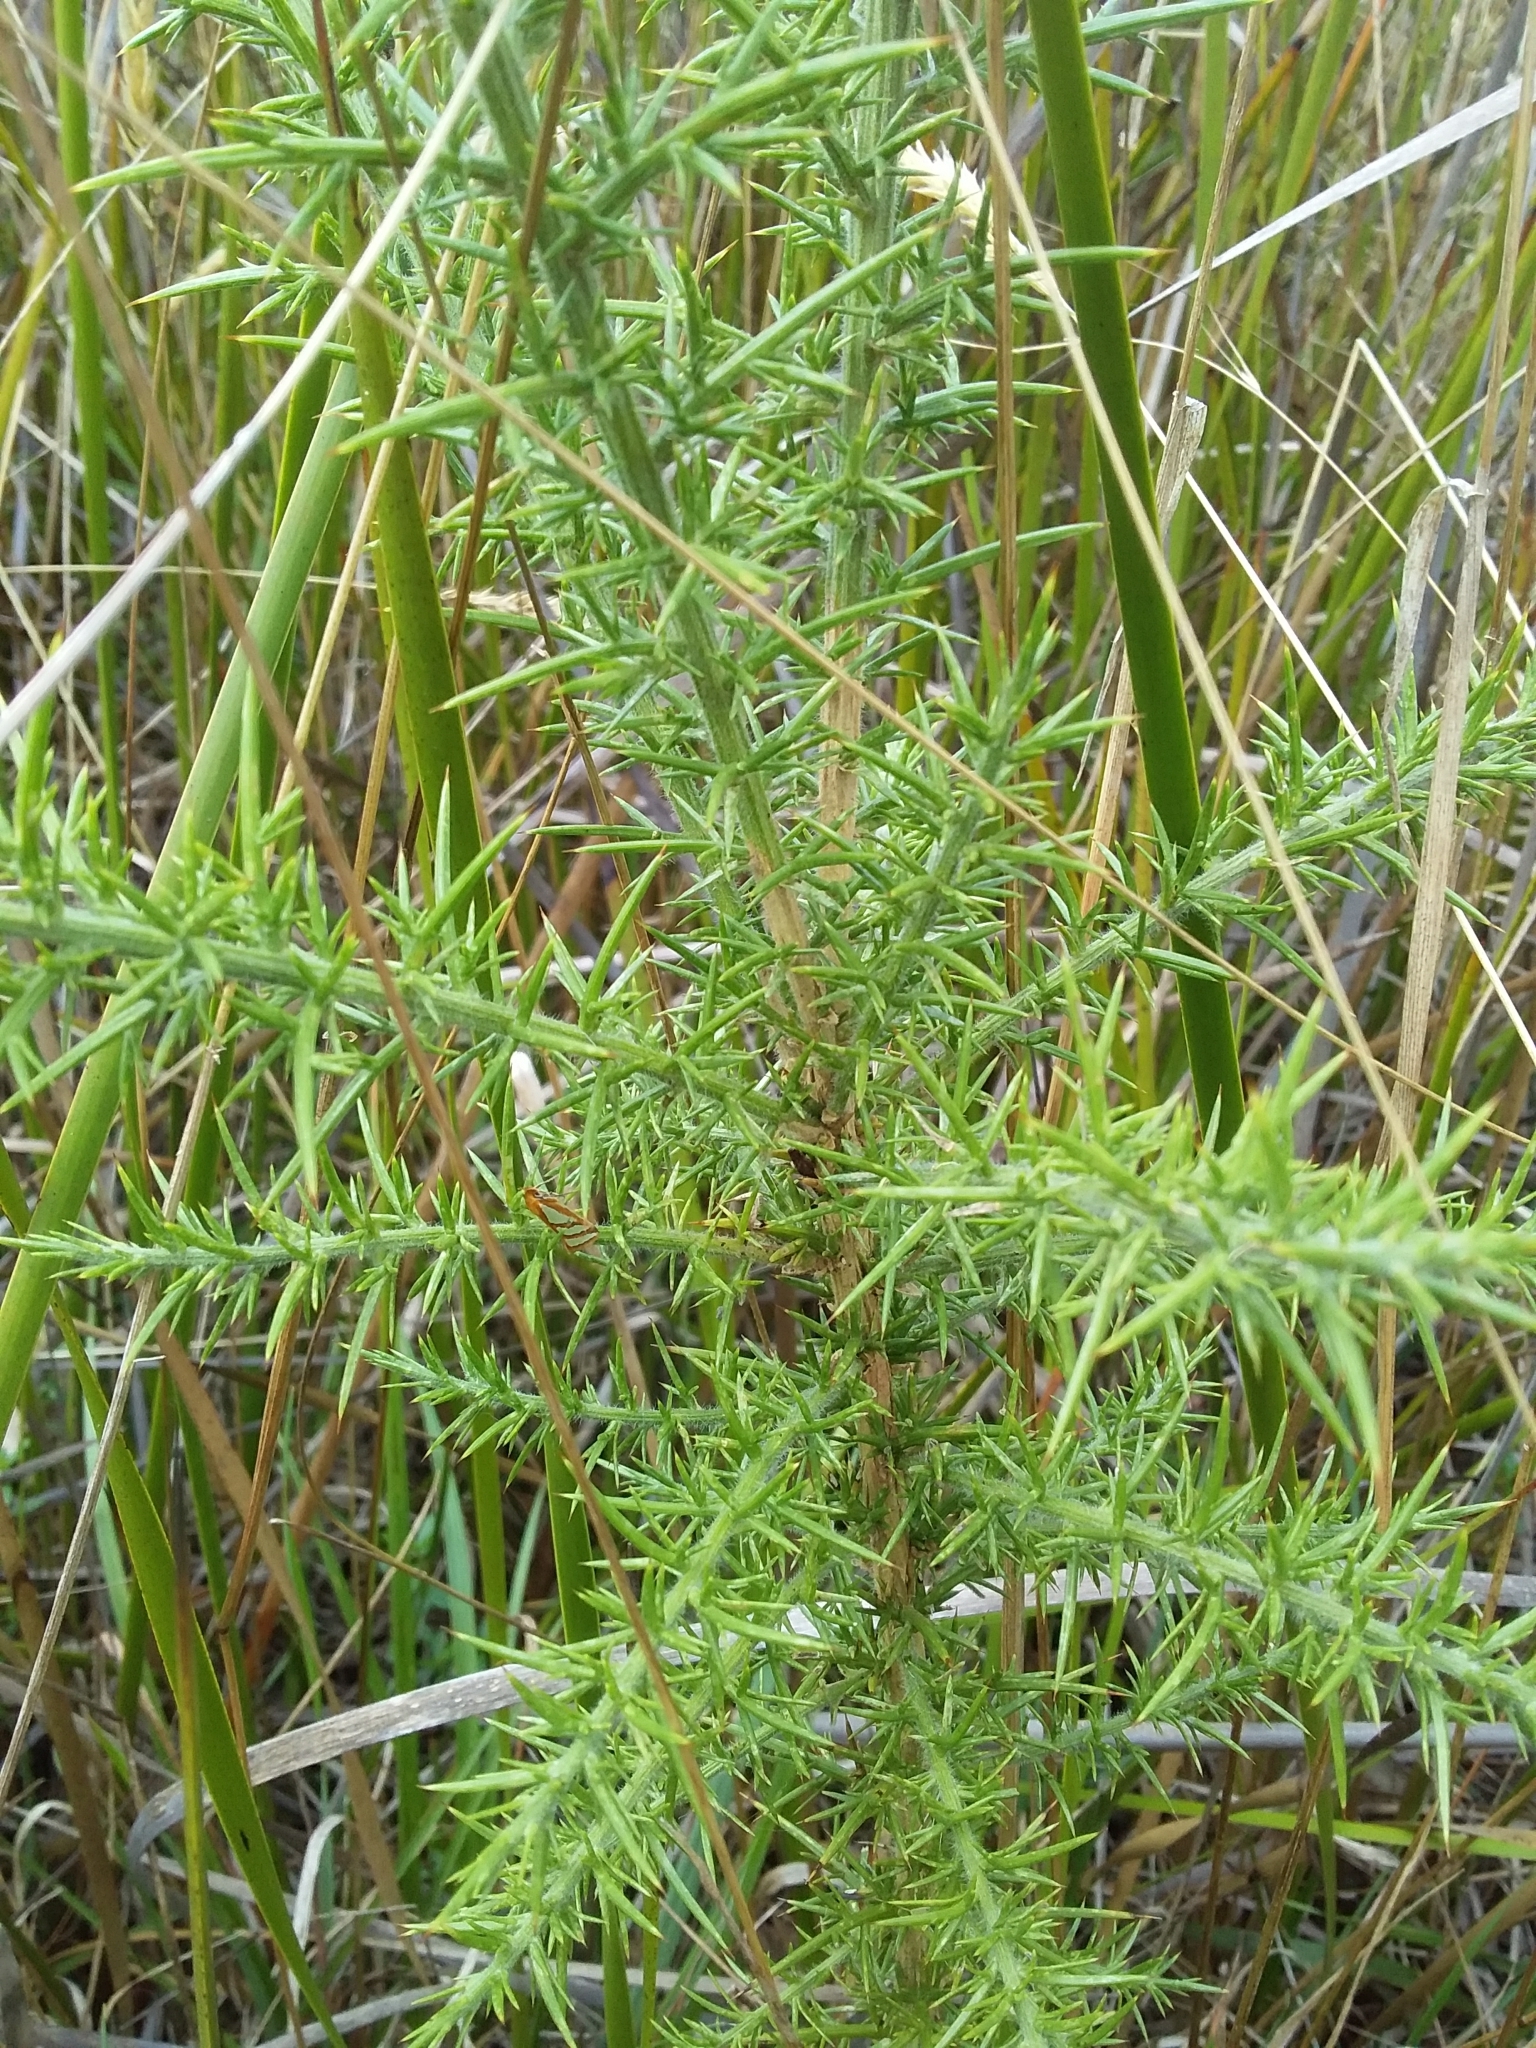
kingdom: Plantae
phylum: Tracheophyta
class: Magnoliopsida
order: Fabales
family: Fabaceae
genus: Ulex
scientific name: Ulex europaeus
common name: Common gorse
